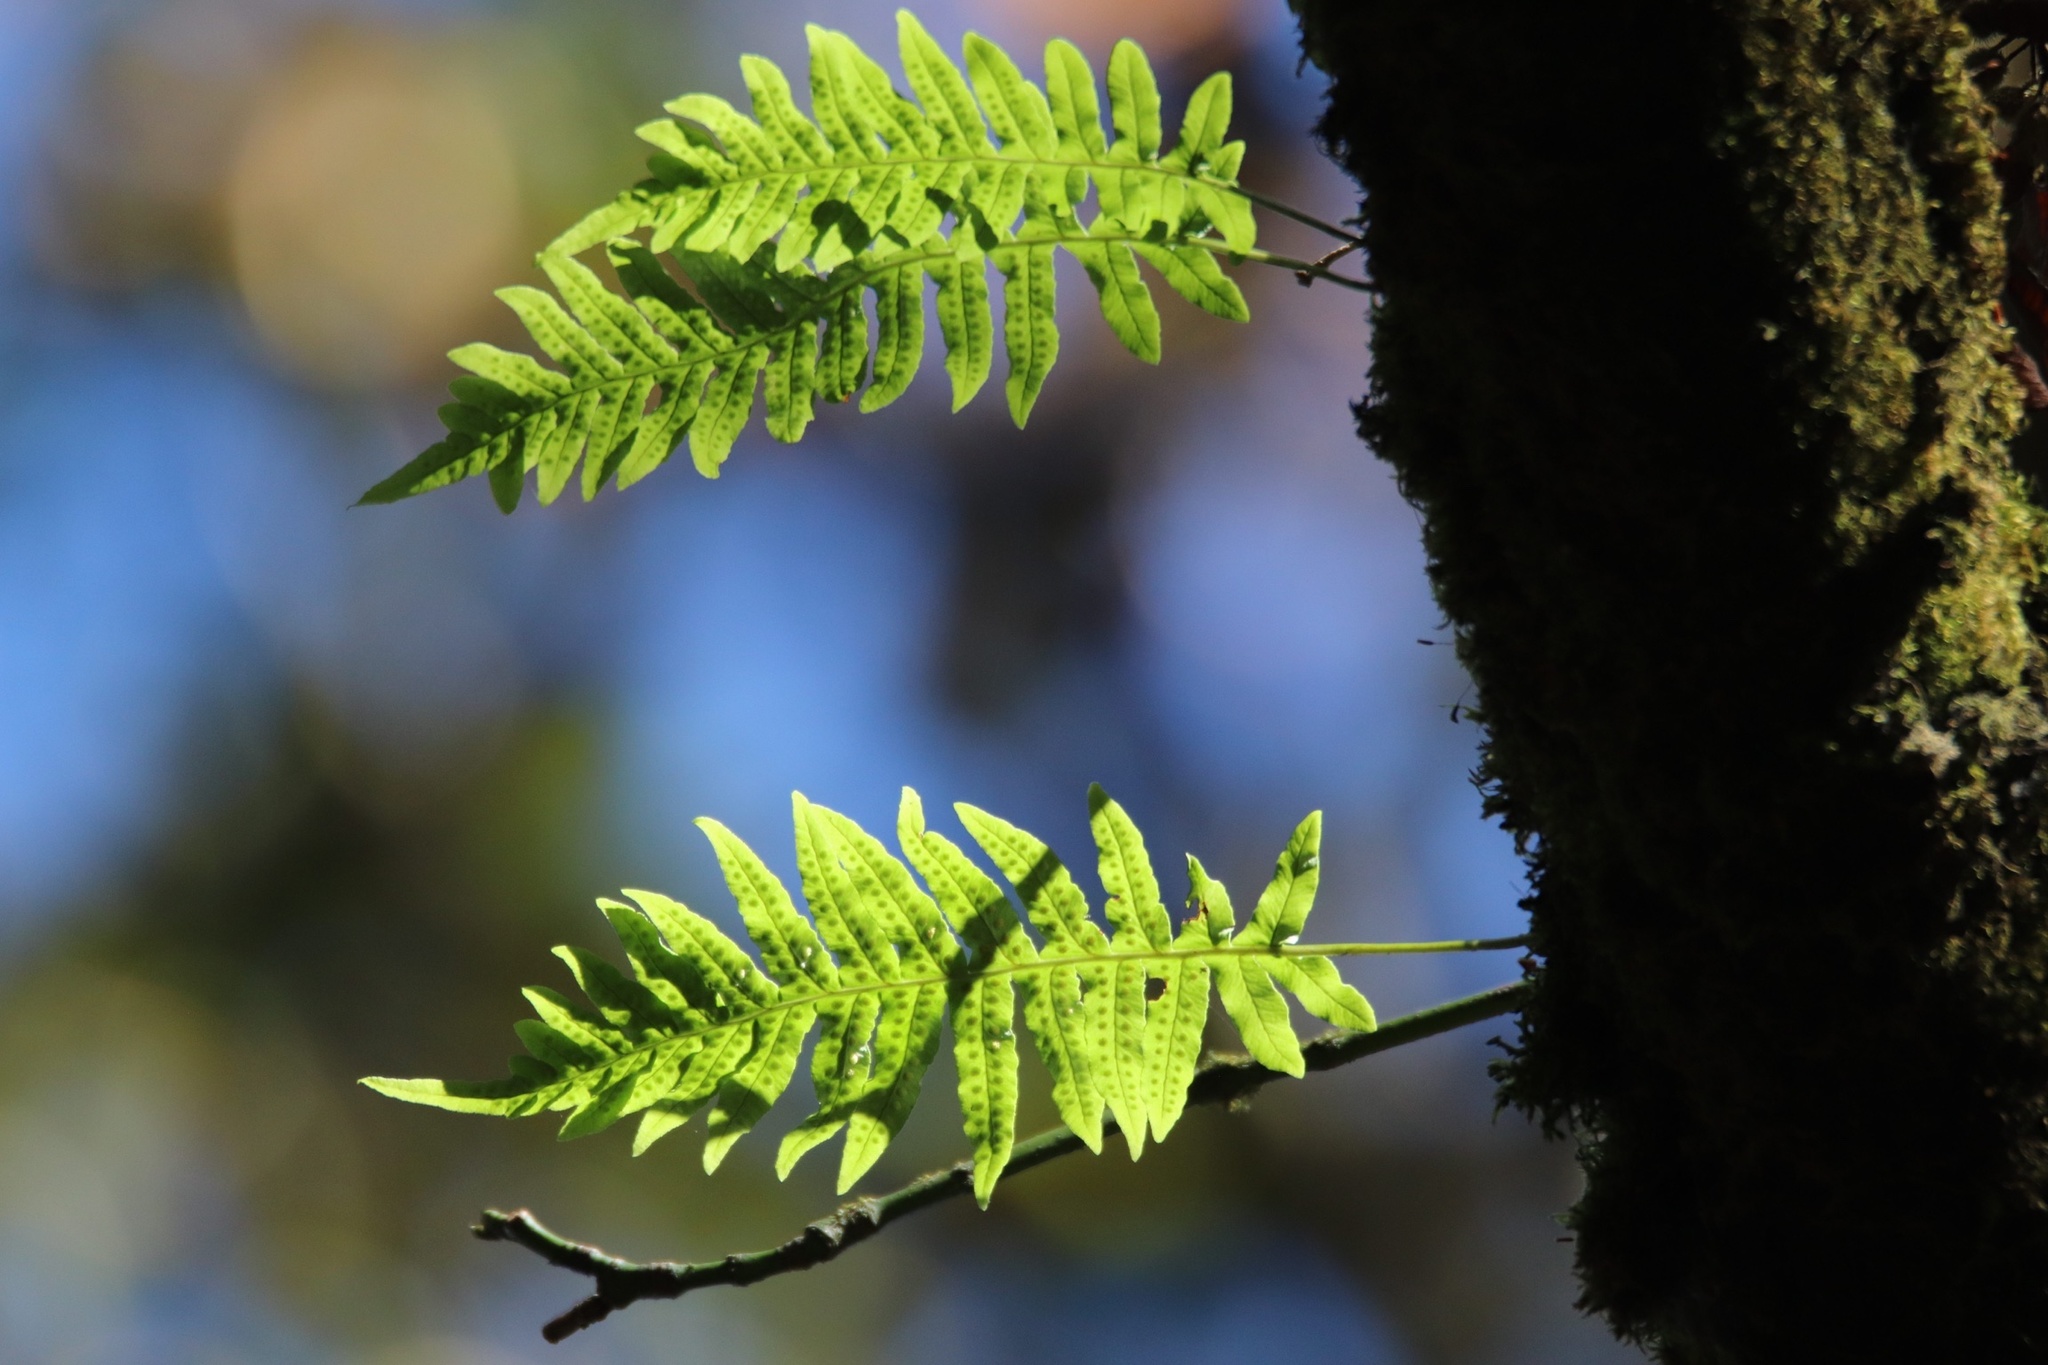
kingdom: Plantae
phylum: Tracheophyta
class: Polypodiopsida
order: Polypodiales
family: Polypodiaceae
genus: Polypodium
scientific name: Polypodium glycyrrhiza
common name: Licorice fern
